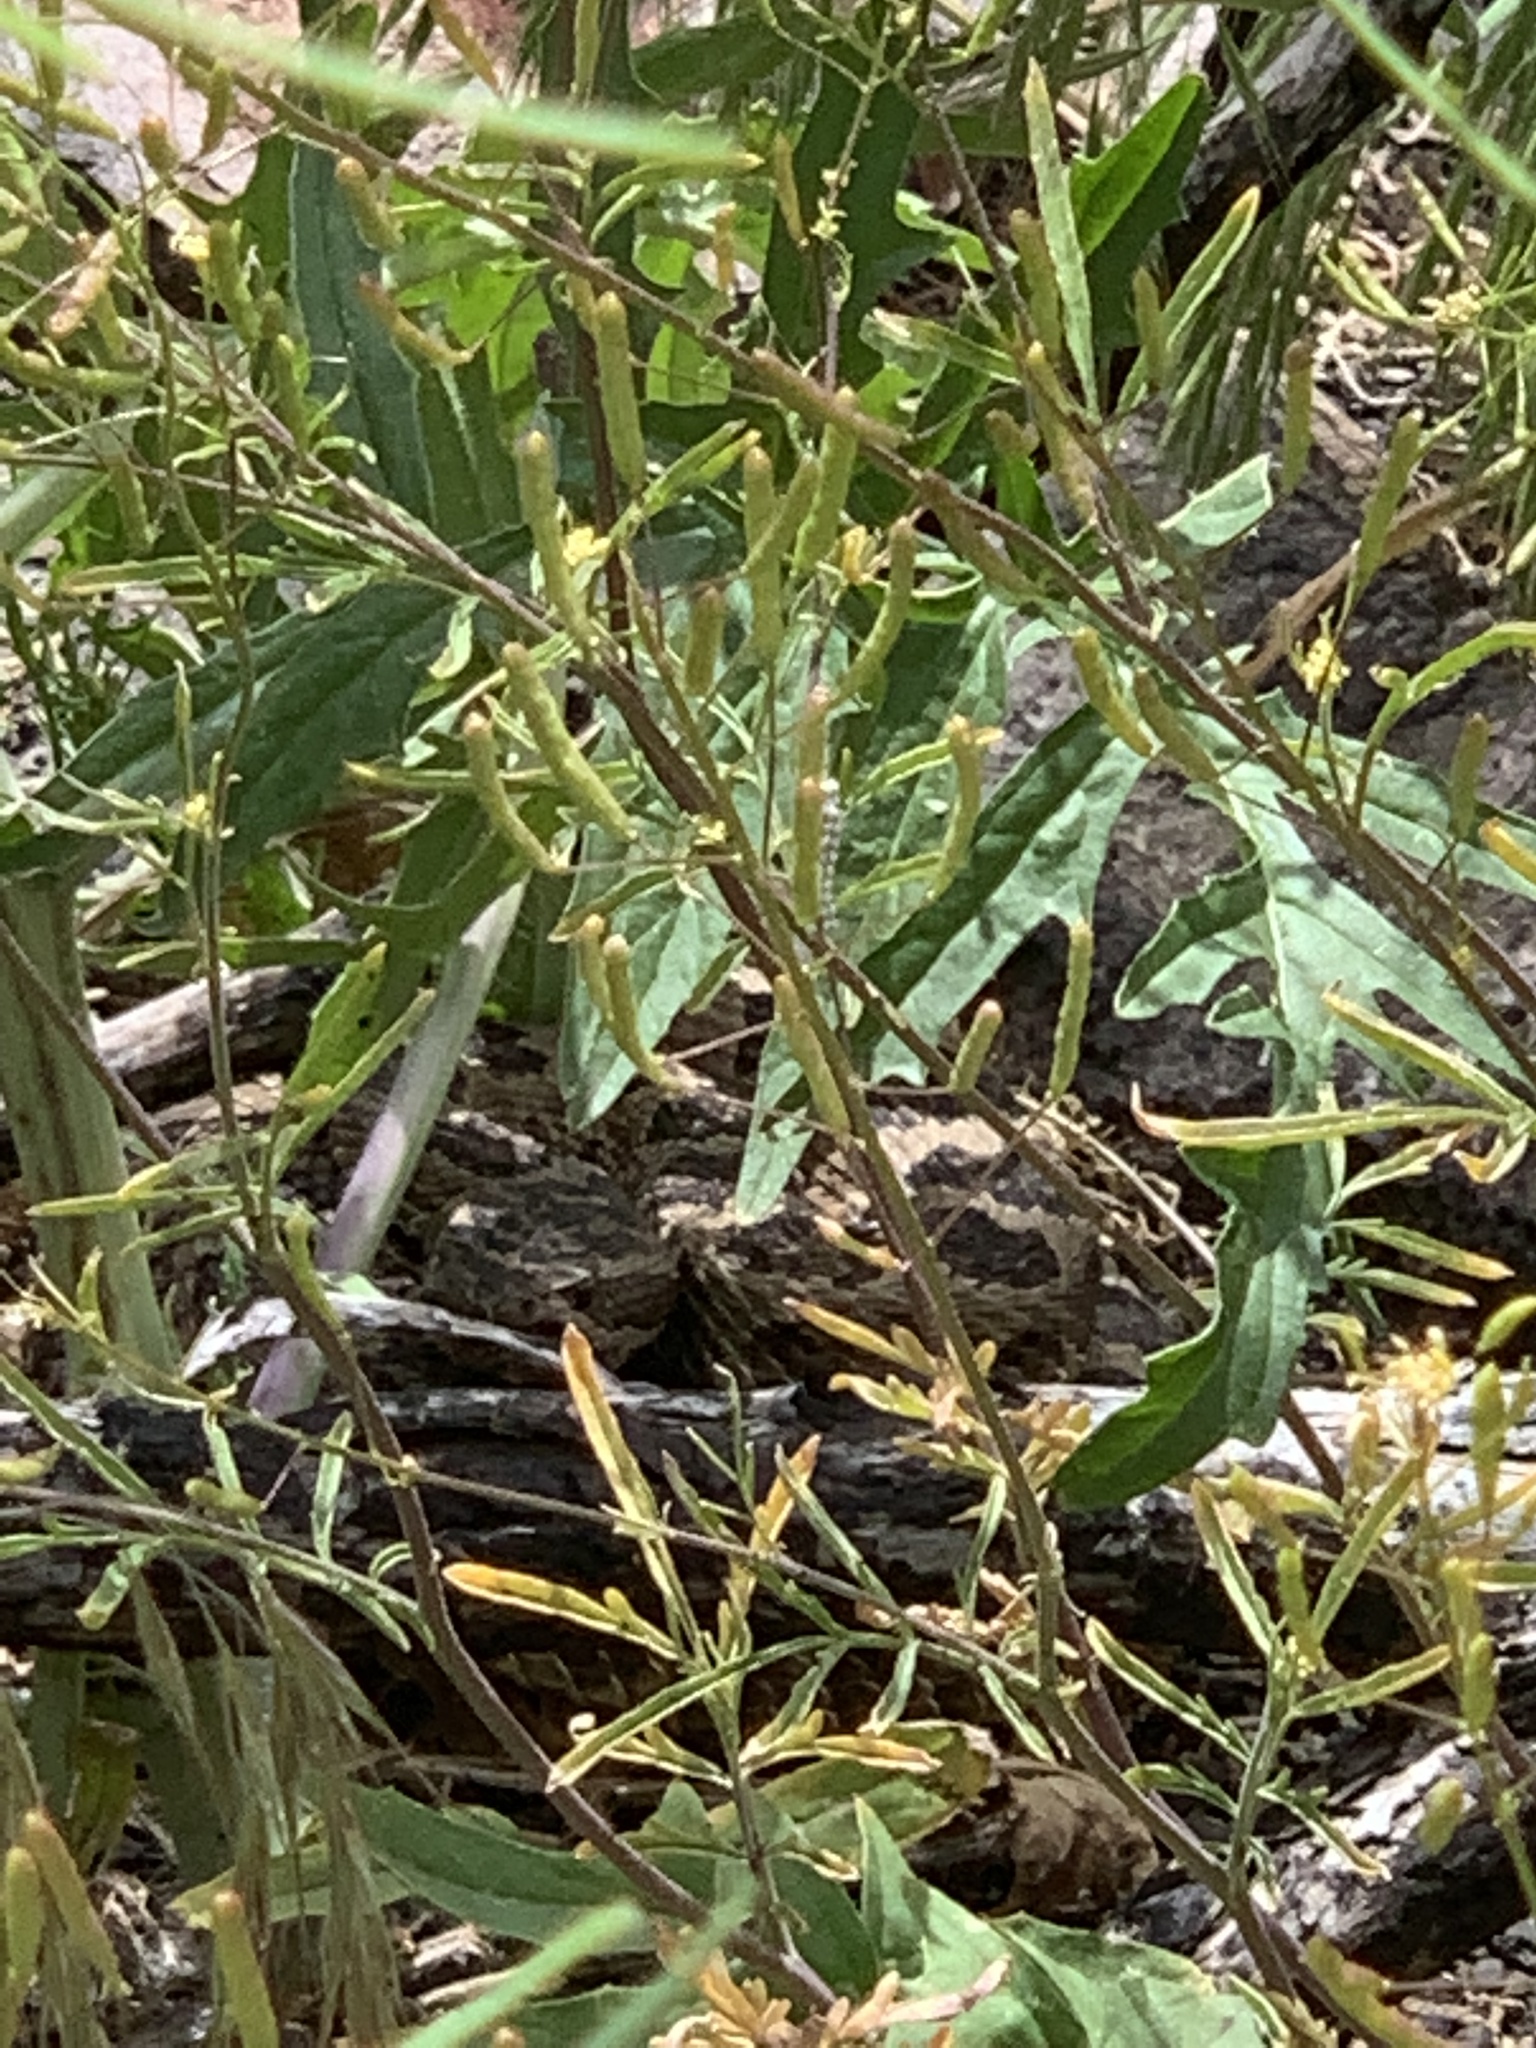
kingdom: Animalia
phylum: Chordata
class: Squamata
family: Viperidae
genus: Crotalus
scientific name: Crotalus oreganus
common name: Abyssus
